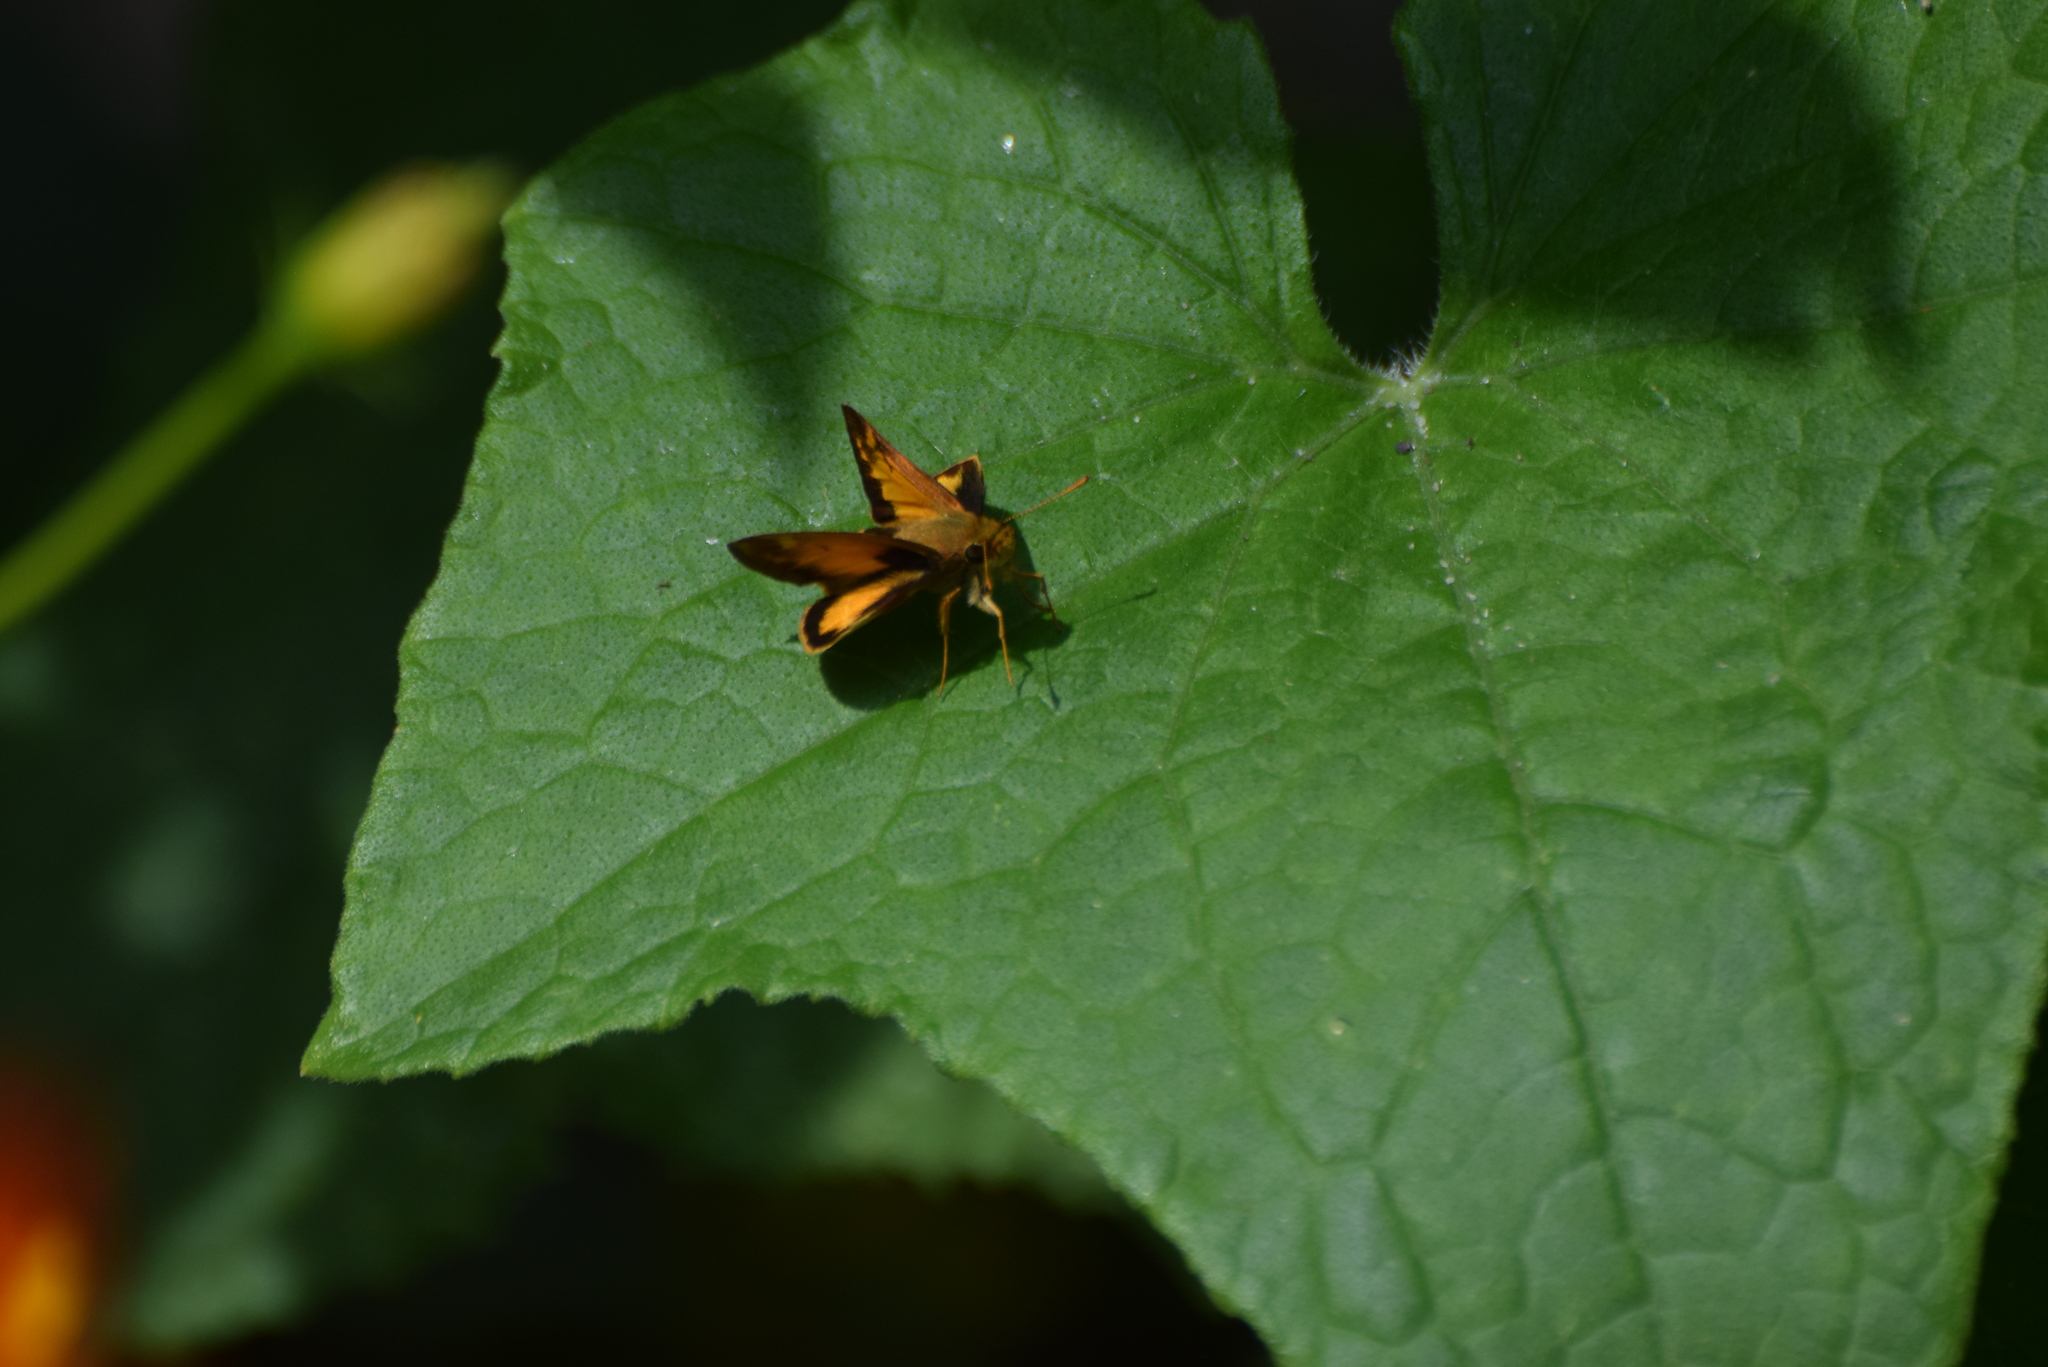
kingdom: Animalia
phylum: Arthropoda
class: Insecta
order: Lepidoptera
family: Hesperiidae
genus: Lon
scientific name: Lon zabulon
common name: Zabulon skipper
